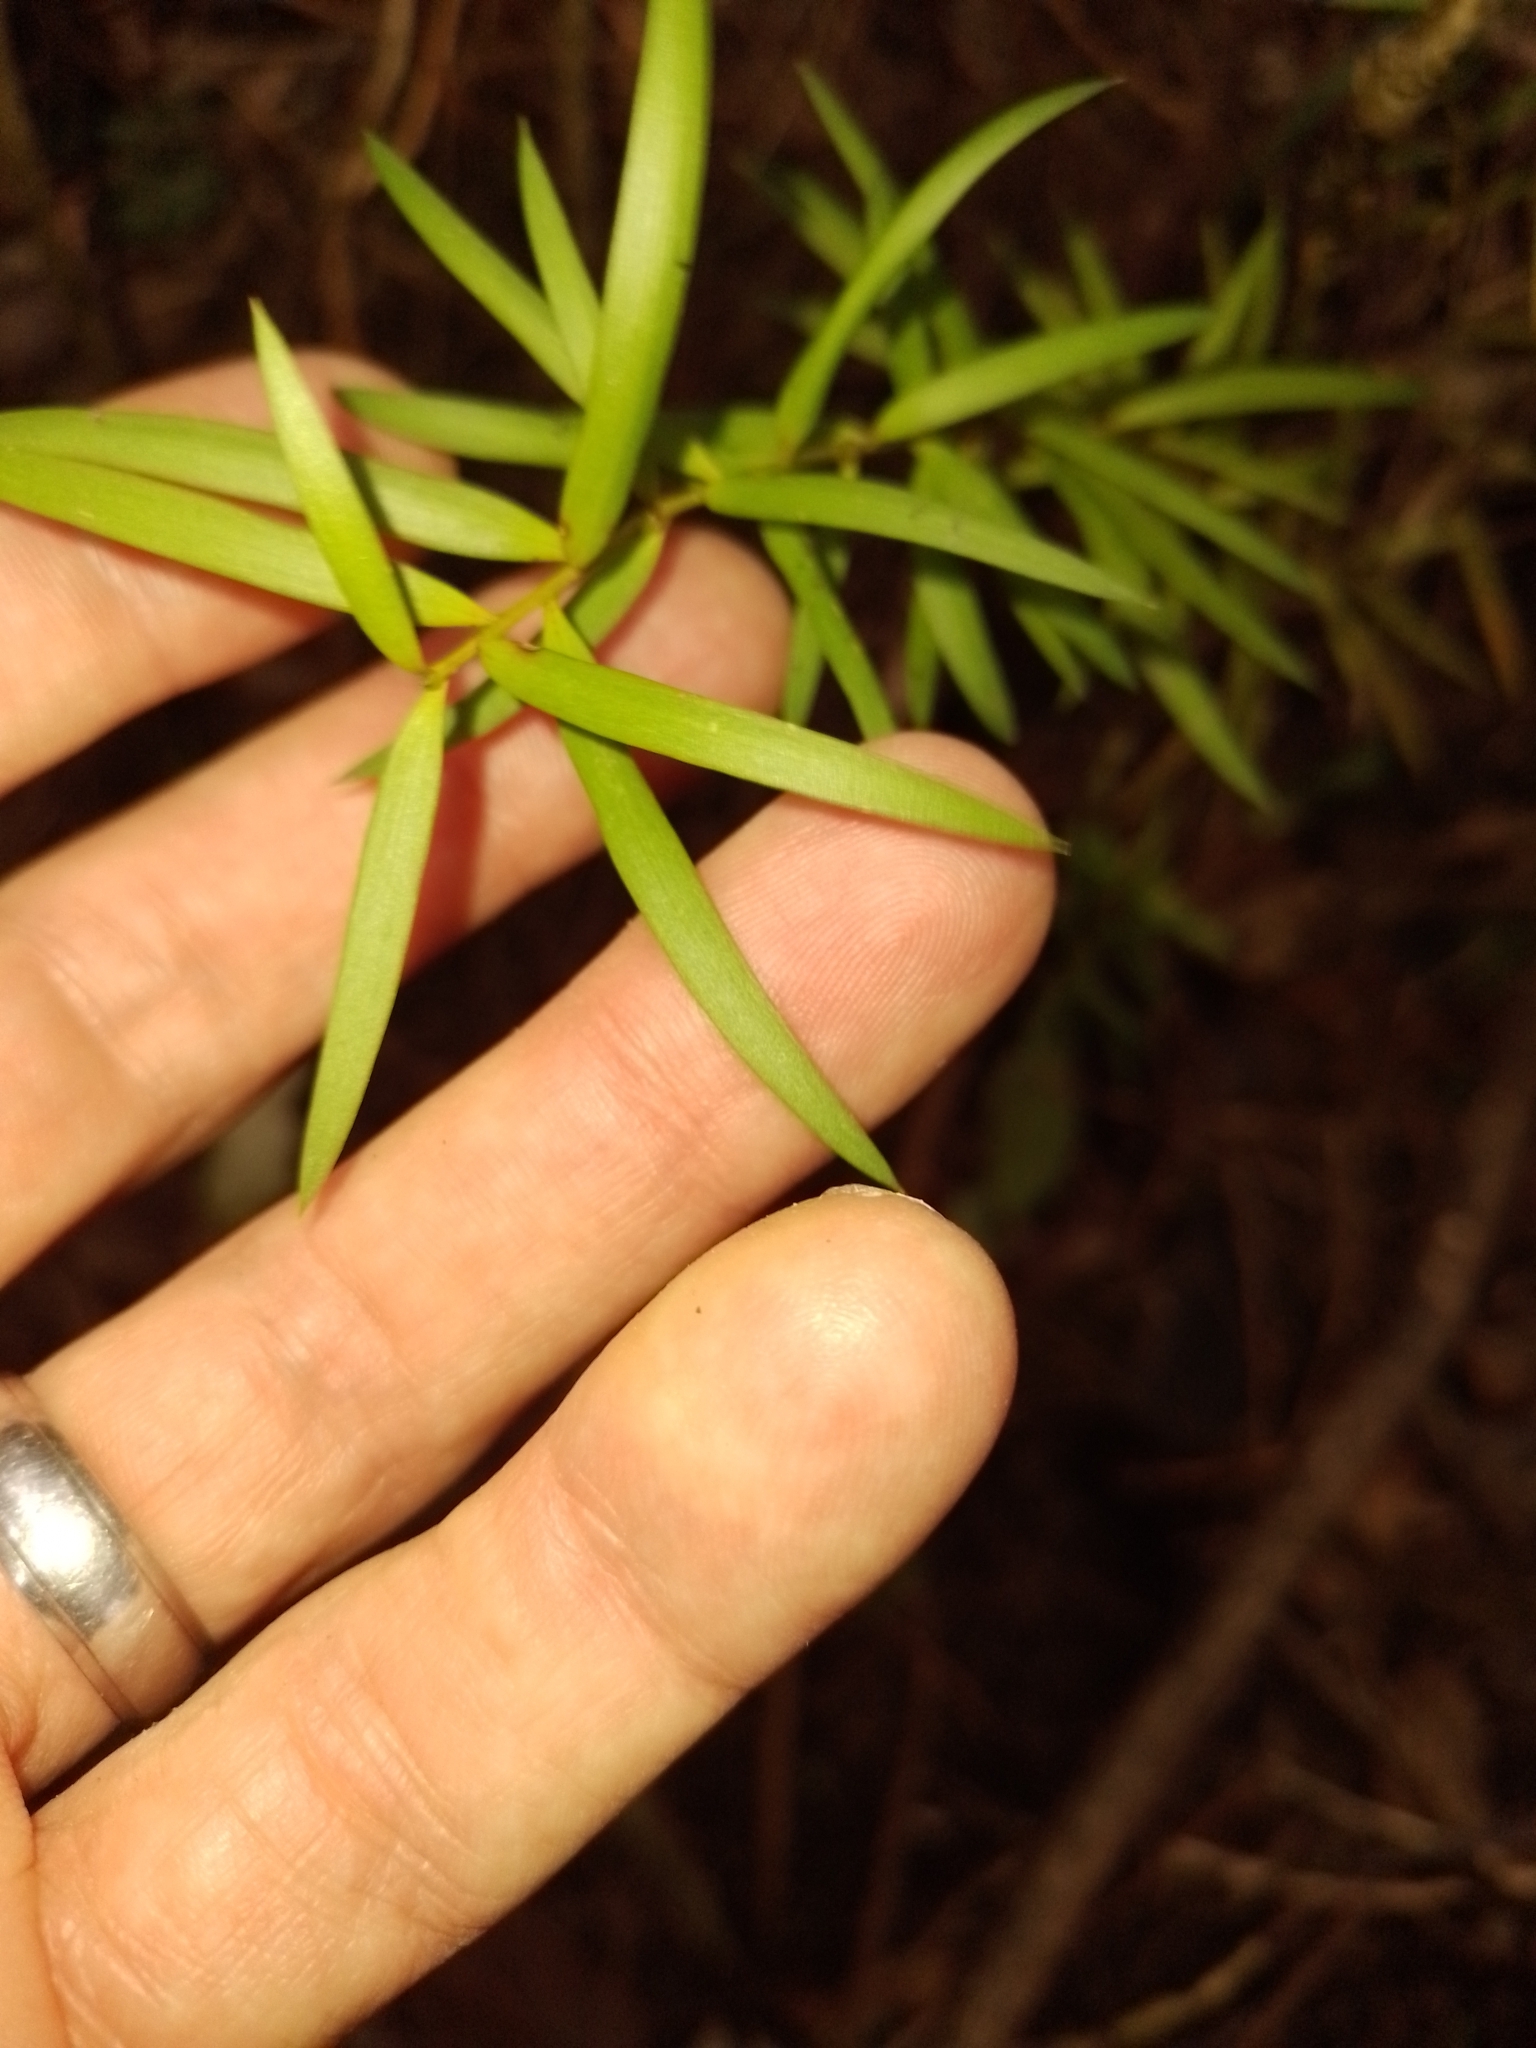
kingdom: Plantae
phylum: Tracheophyta
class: Pinopsida
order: Pinales
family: Podocarpaceae
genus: Podocarpus
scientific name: Podocarpus totara
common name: Totara
